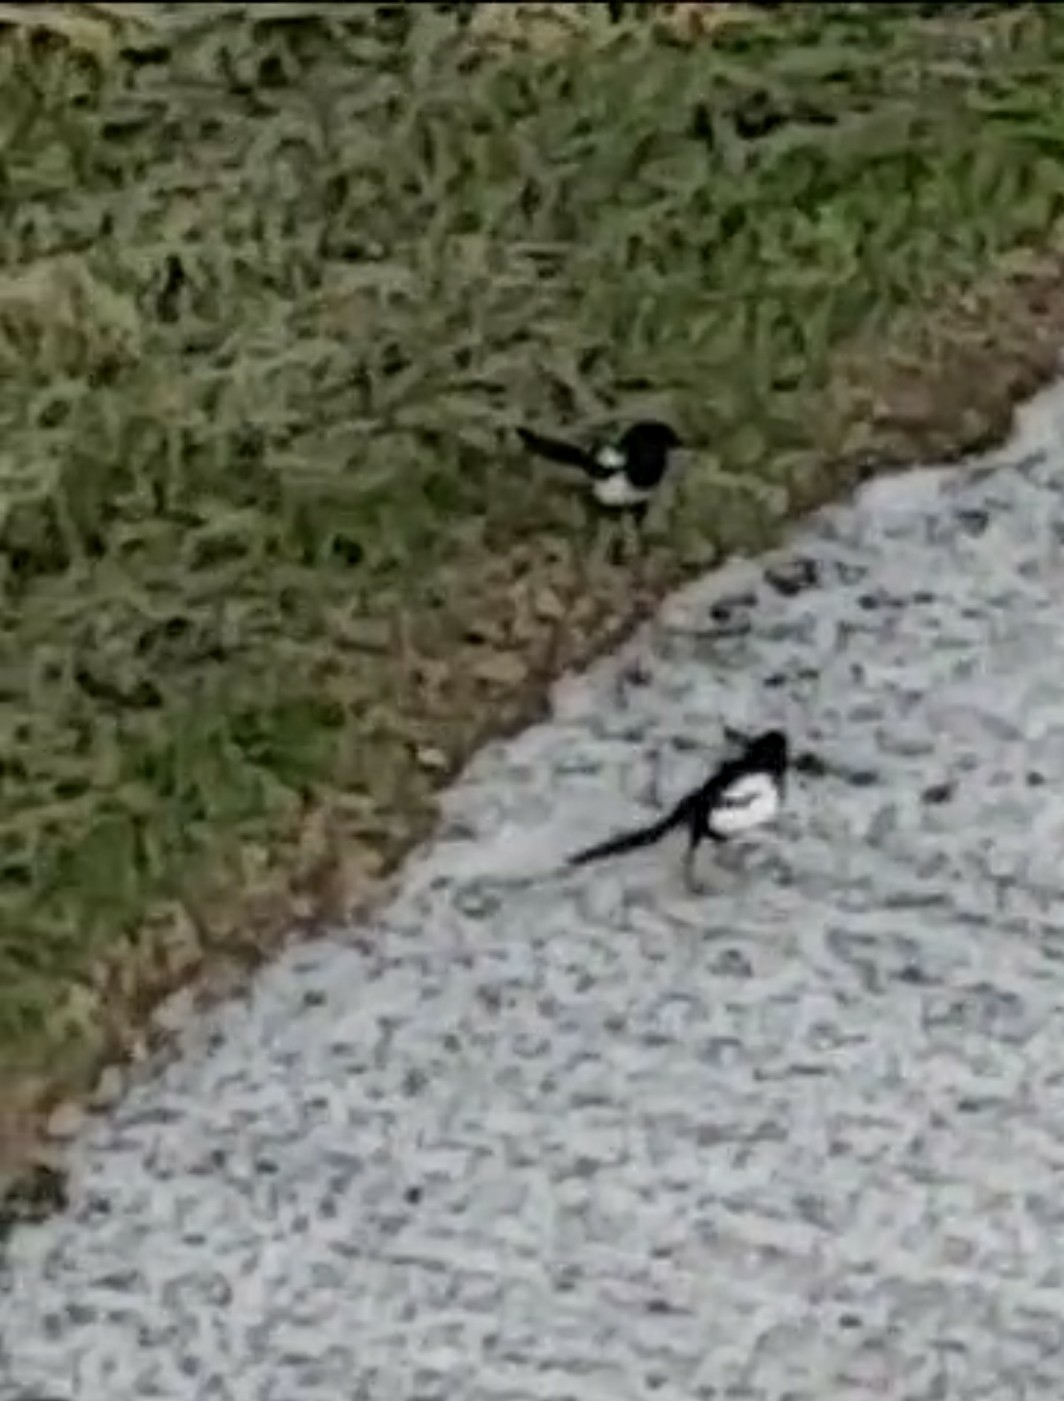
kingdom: Animalia
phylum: Chordata
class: Aves
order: Passeriformes
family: Corvidae
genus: Pica
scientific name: Pica pica
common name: Eurasian magpie
